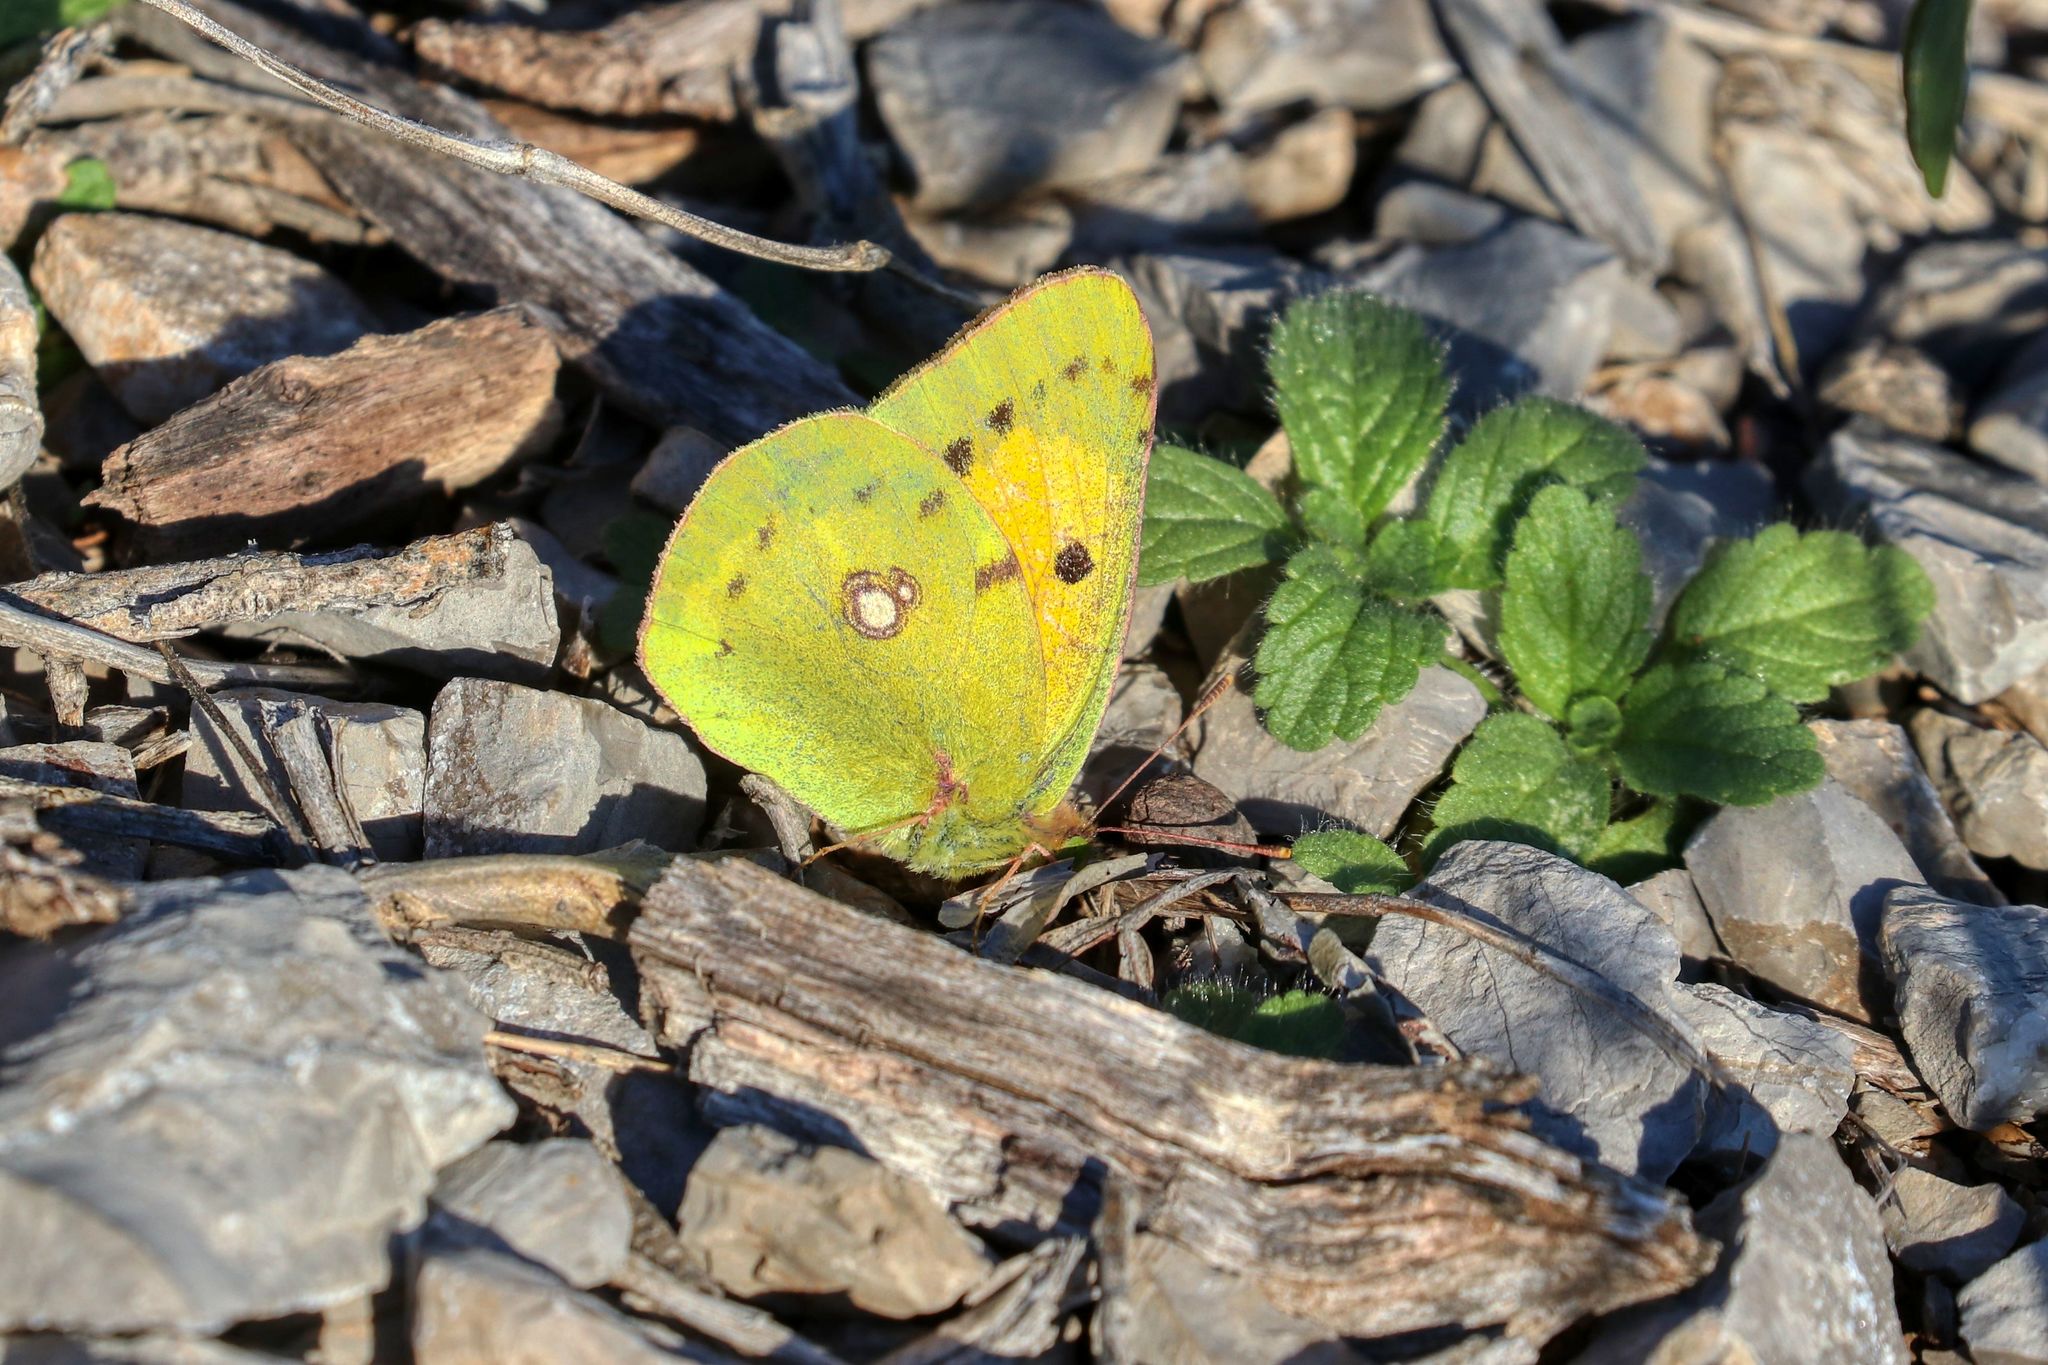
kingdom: Animalia
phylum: Arthropoda
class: Insecta
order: Lepidoptera
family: Pieridae
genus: Colias
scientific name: Colias croceus
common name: Clouded yellow
